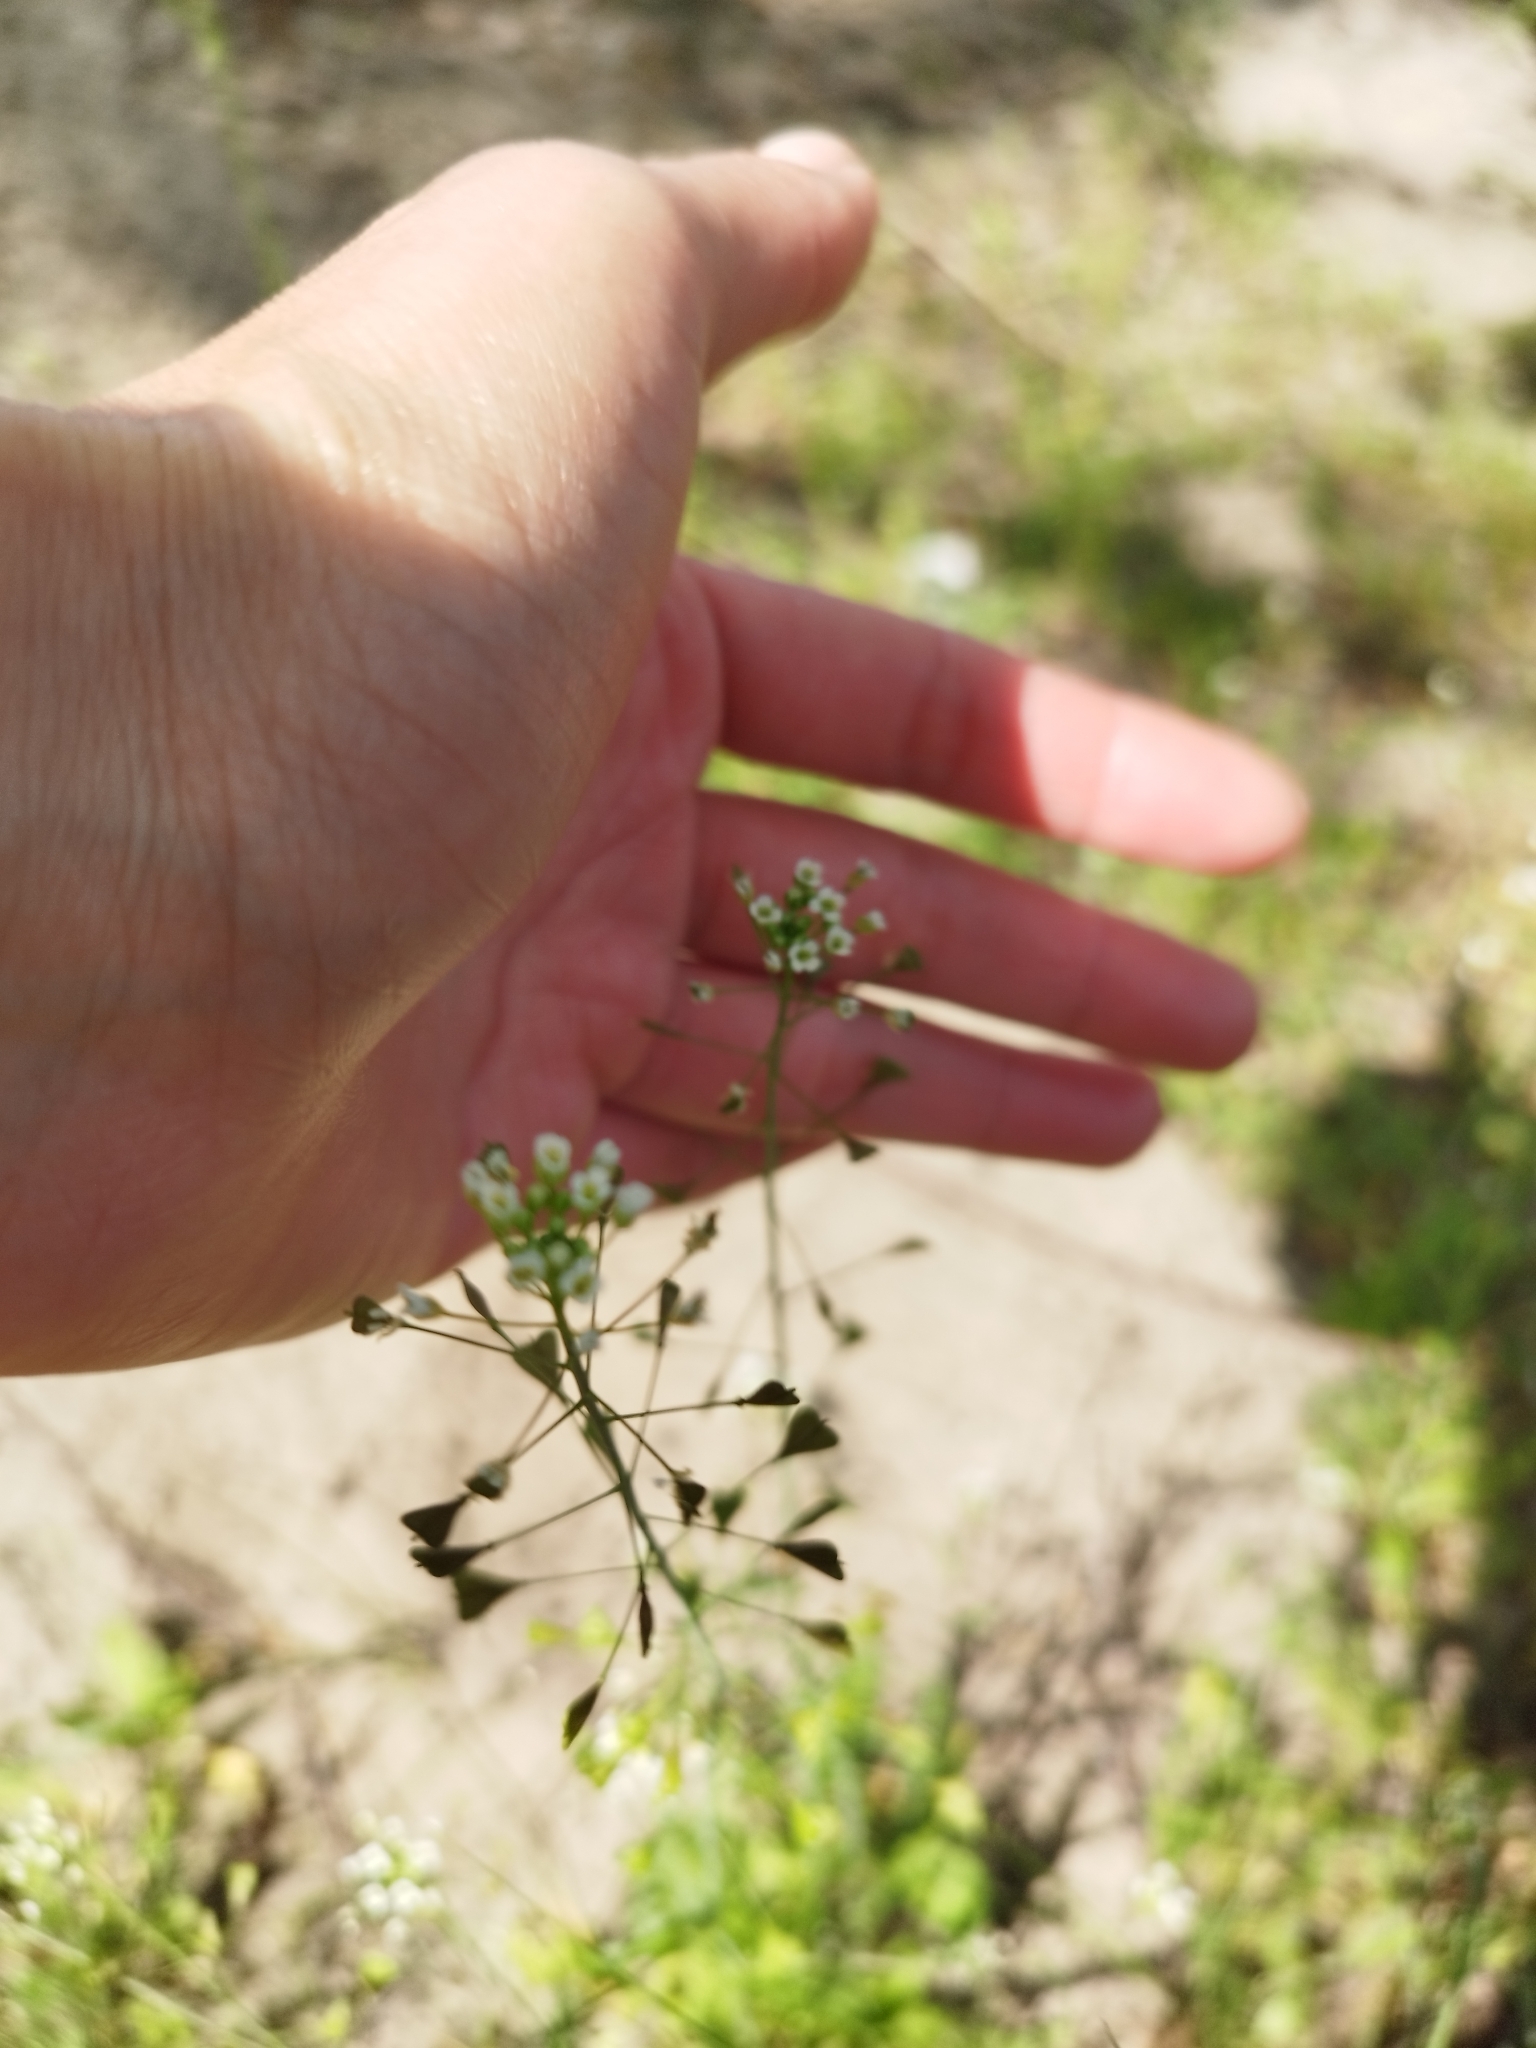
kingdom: Plantae
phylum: Tracheophyta
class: Magnoliopsida
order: Brassicales
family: Brassicaceae
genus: Capsella
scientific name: Capsella bursa-pastoris
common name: Shepherd's purse
